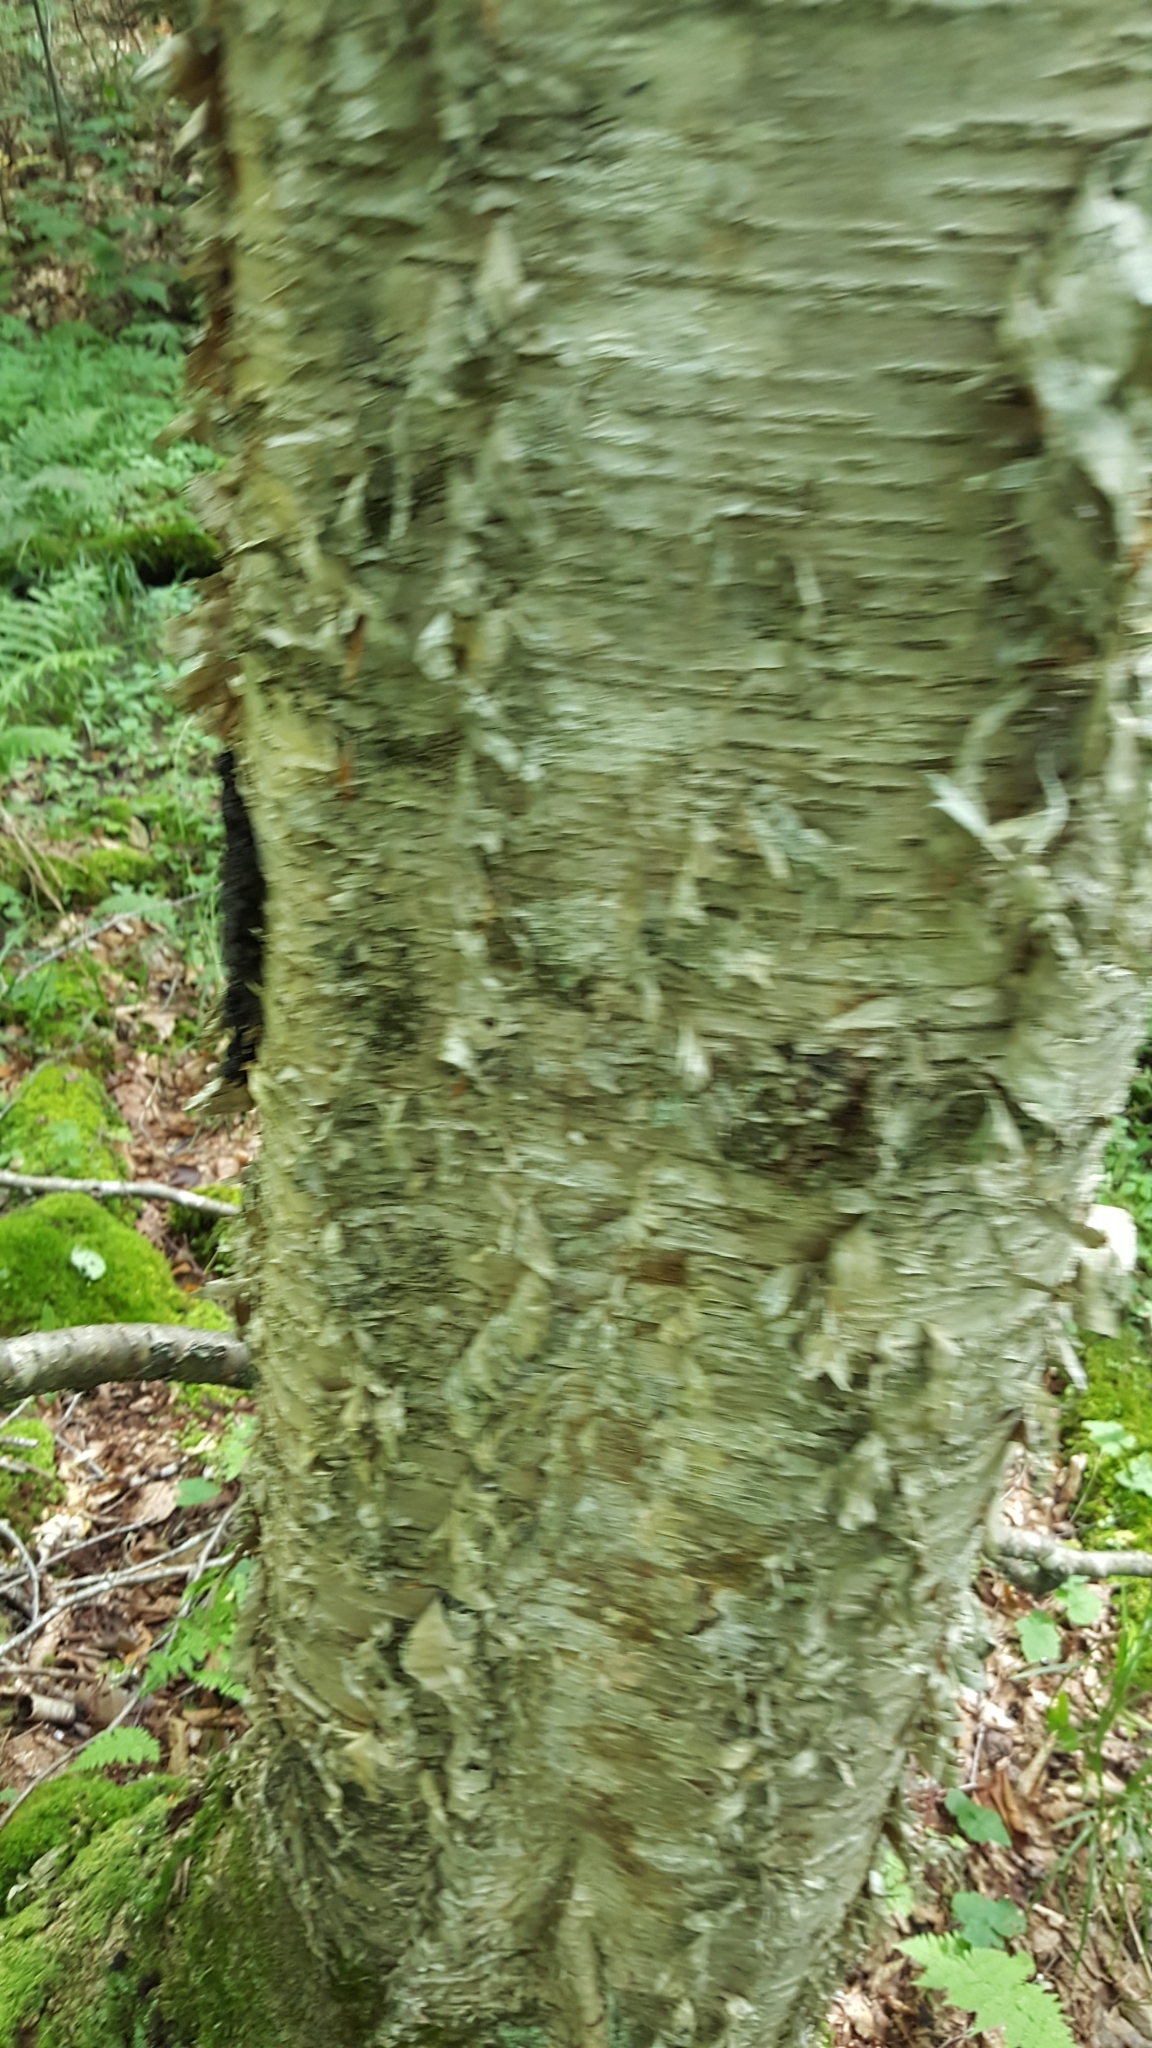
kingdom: Plantae
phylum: Tracheophyta
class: Magnoliopsida
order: Fagales
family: Betulaceae
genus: Betula
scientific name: Betula alleghaniensis
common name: Yellow birch
